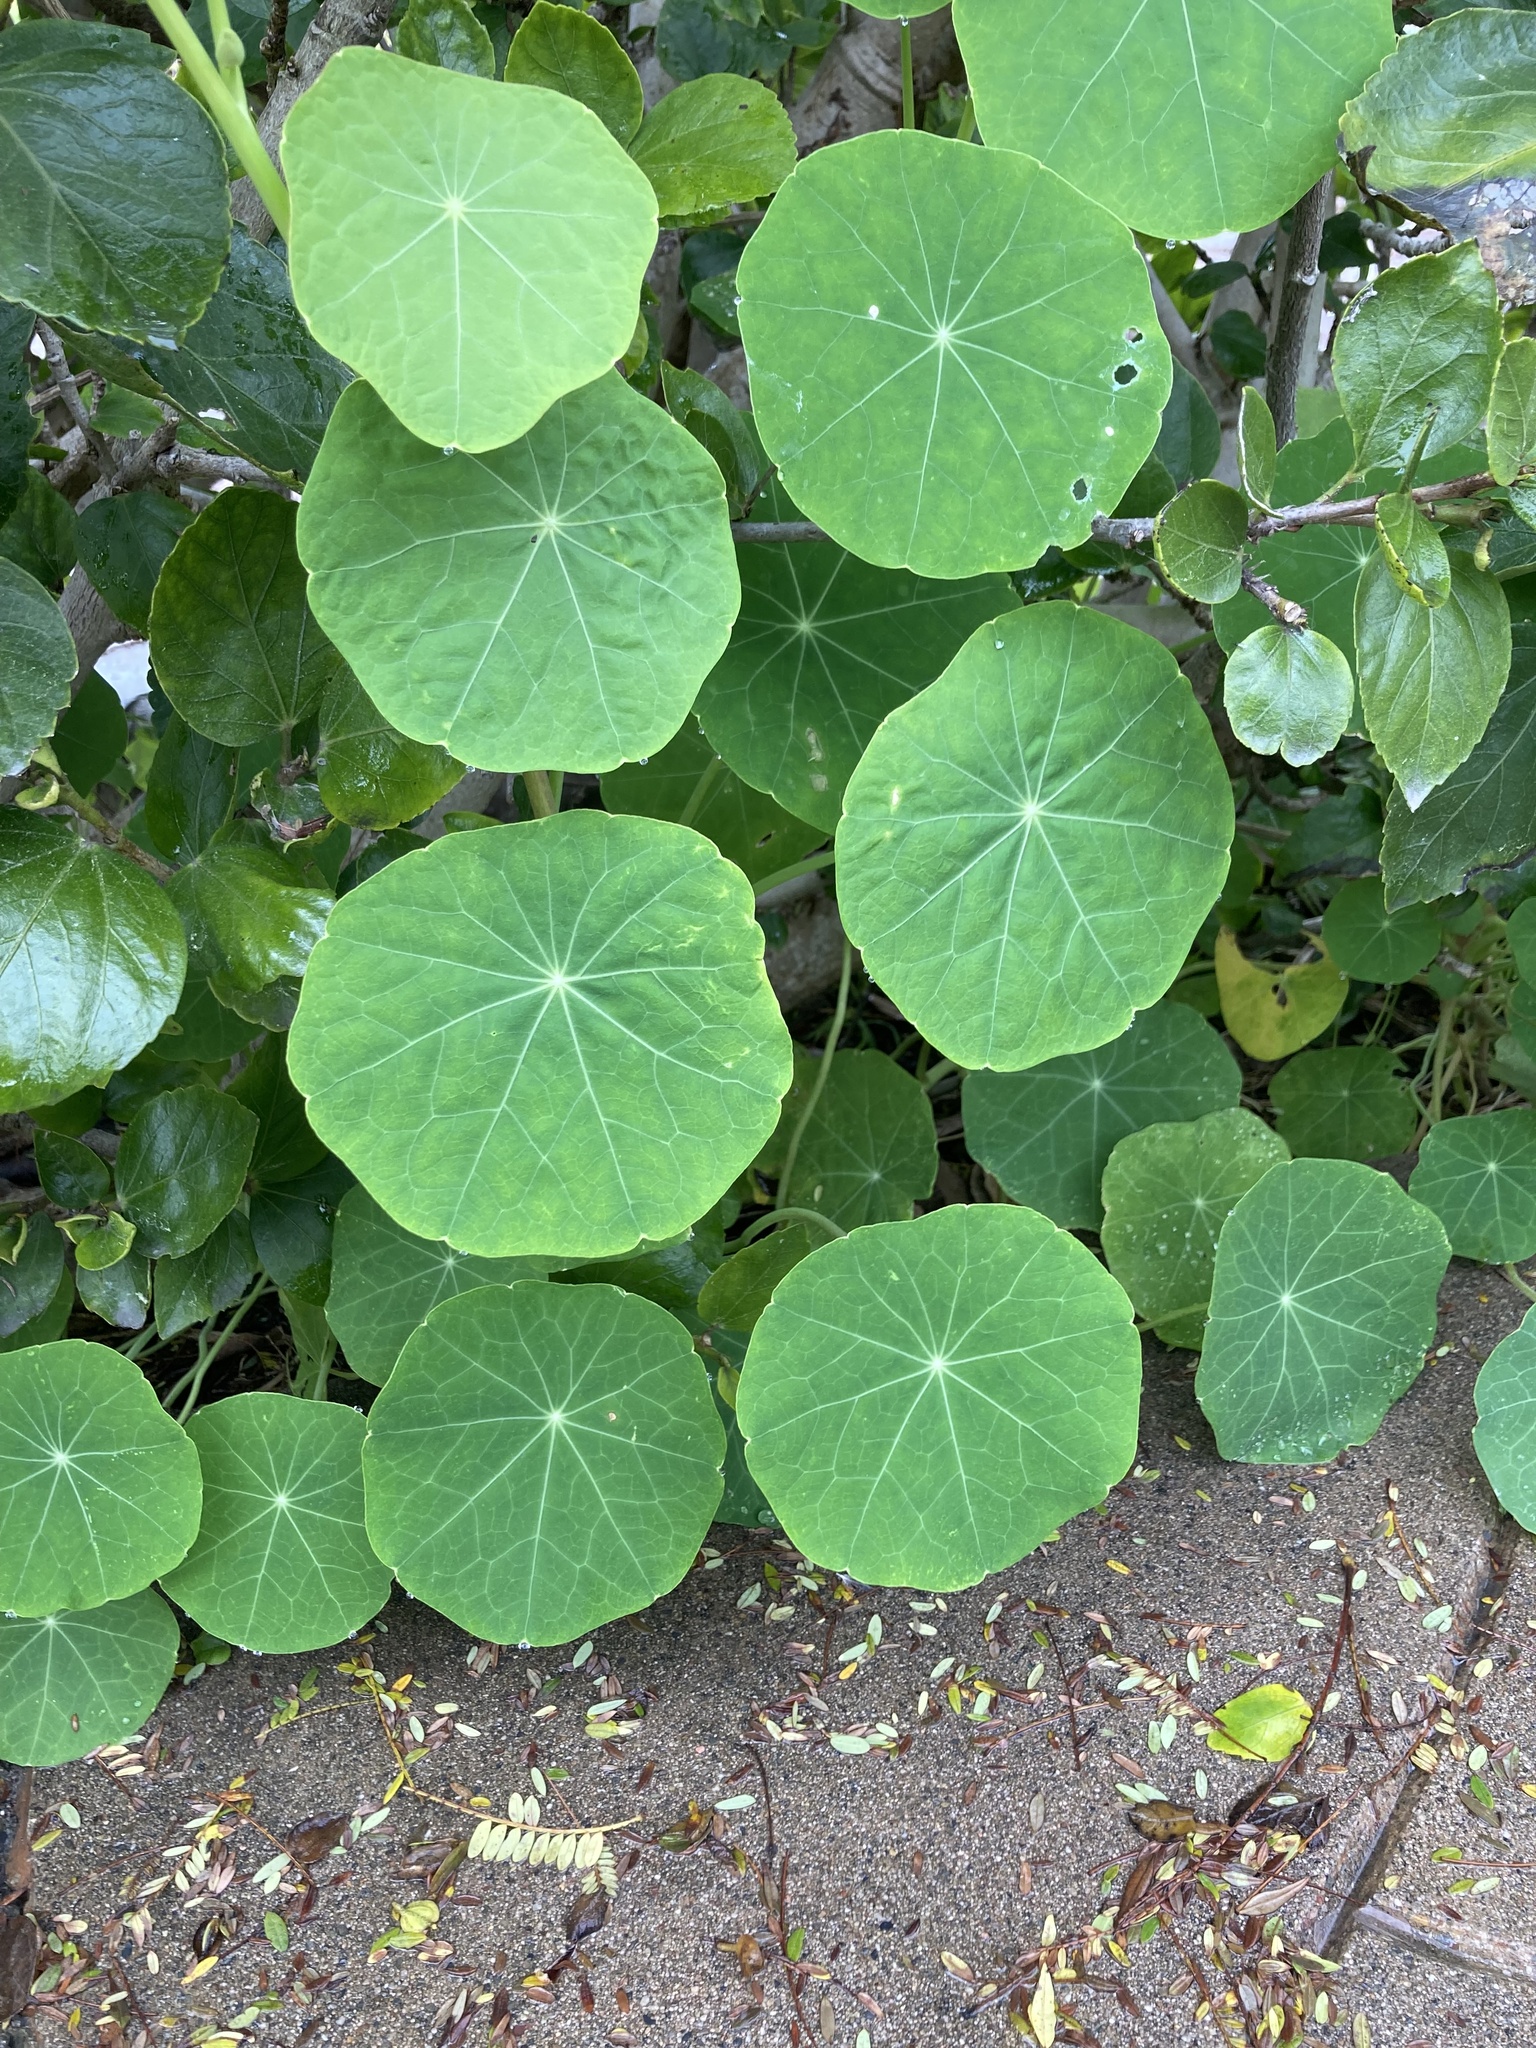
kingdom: Plantae
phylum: Tracheophyta
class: Magnoliopsida
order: Brassicales
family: Tropaeolaceae
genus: Tropaeolum
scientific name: Tropaeolum majus
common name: Nasturtium
